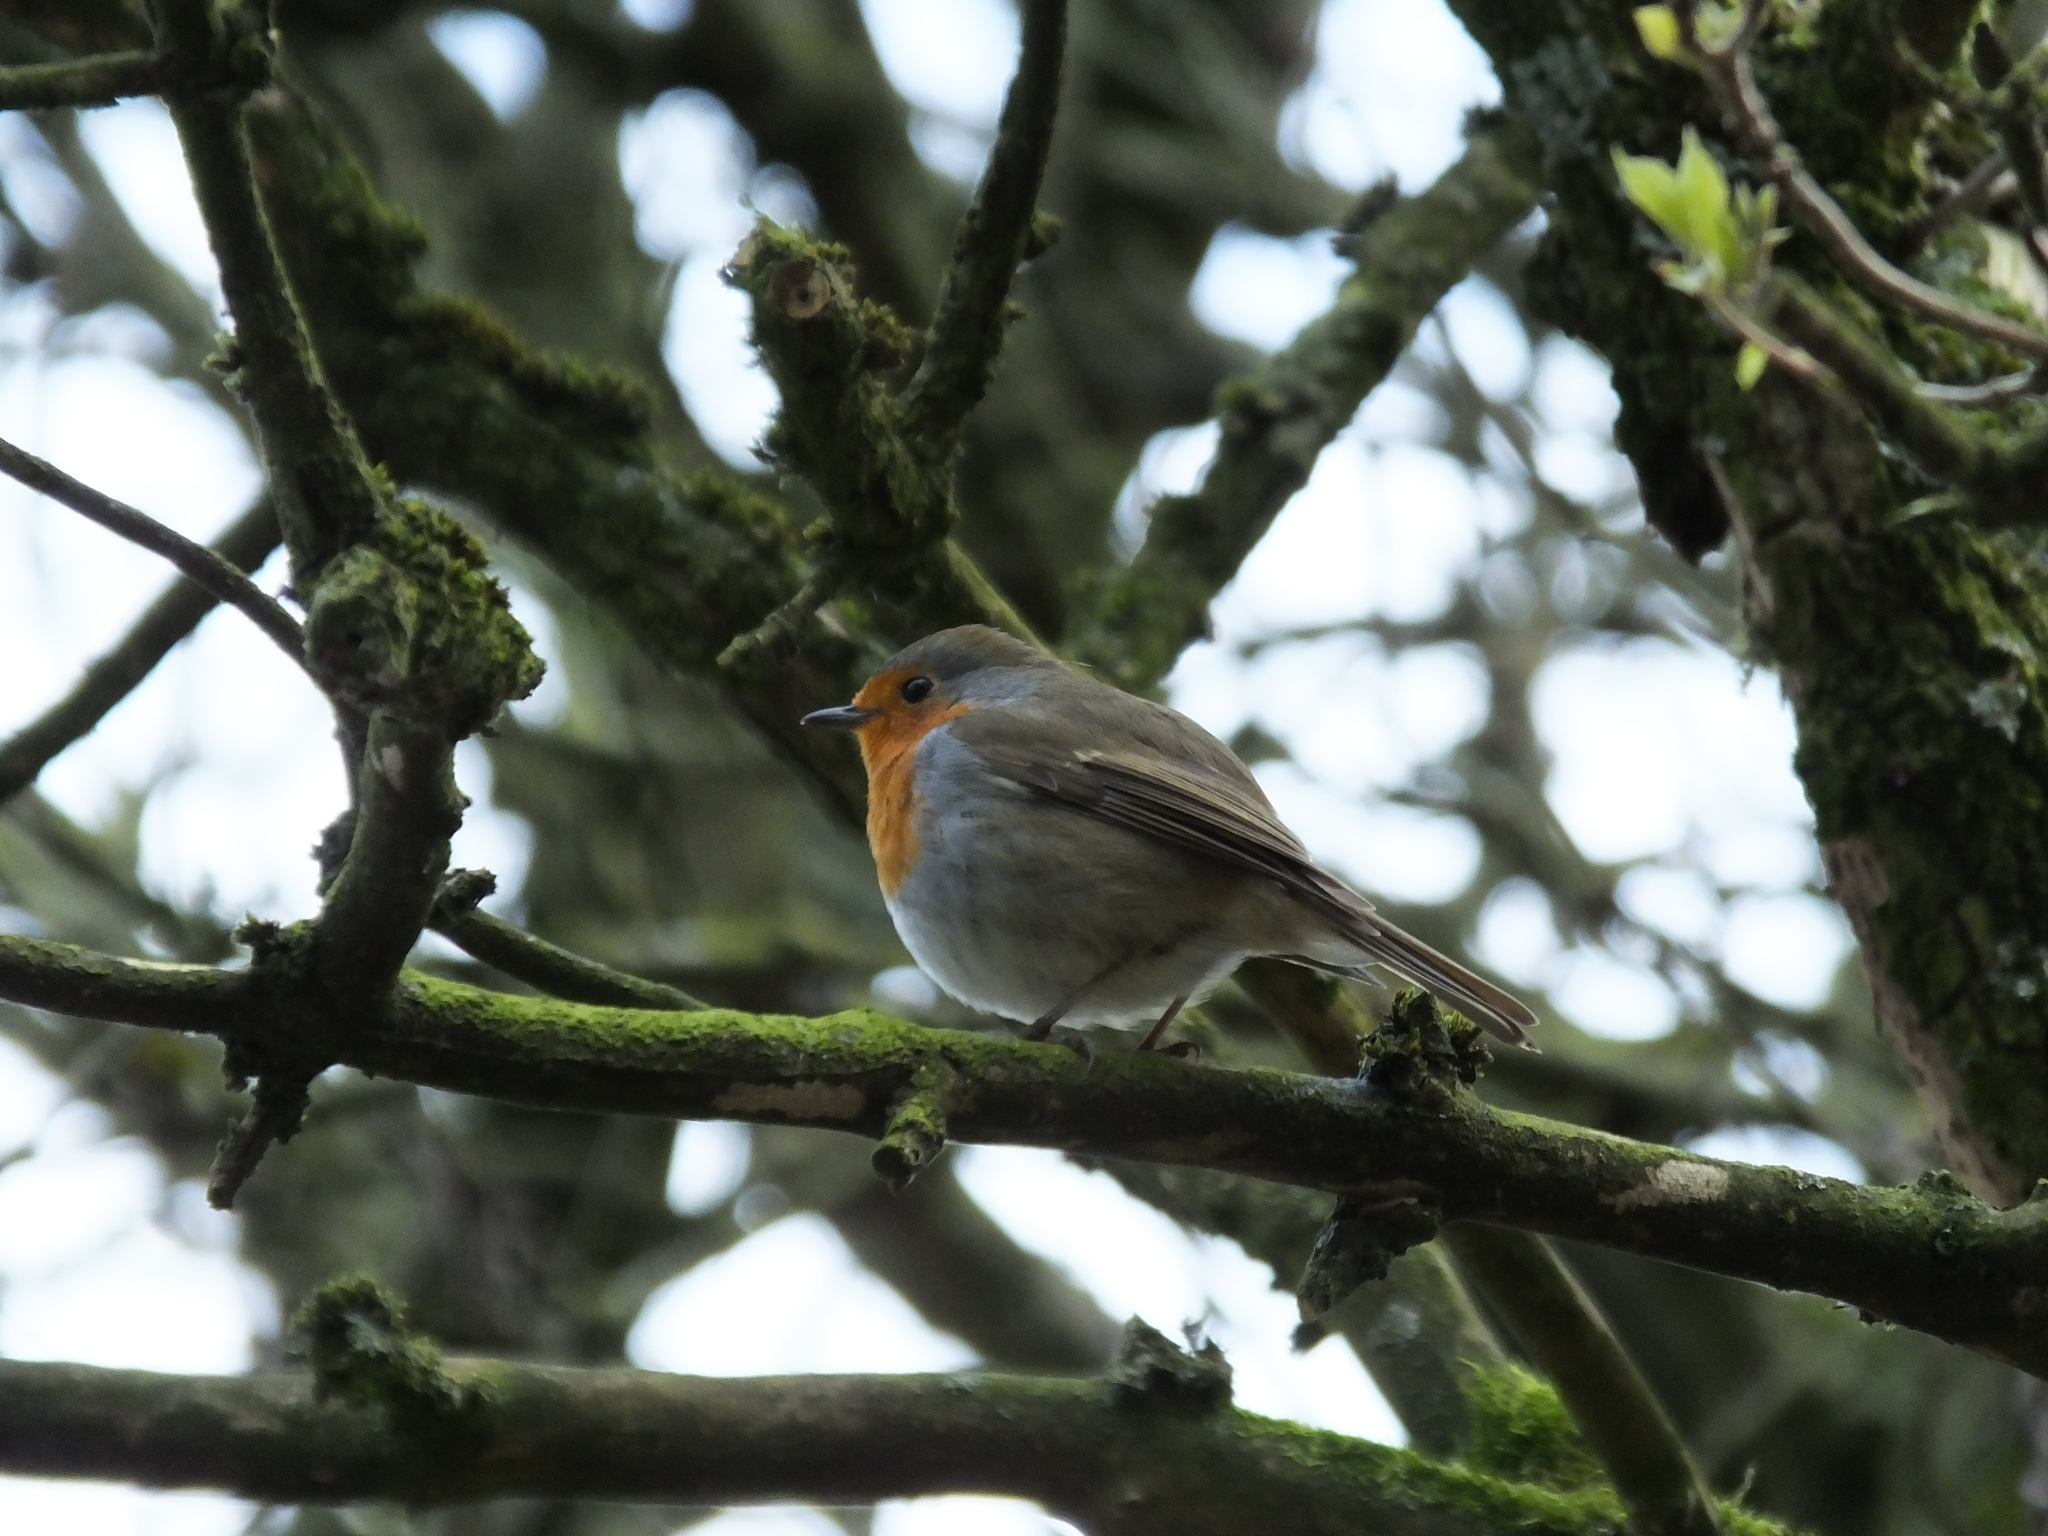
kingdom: Animalia
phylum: Chordata
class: Aves
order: Passeriformes
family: Muscicapidae
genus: Erithacus
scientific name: Erithacus rubecula
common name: European robin
